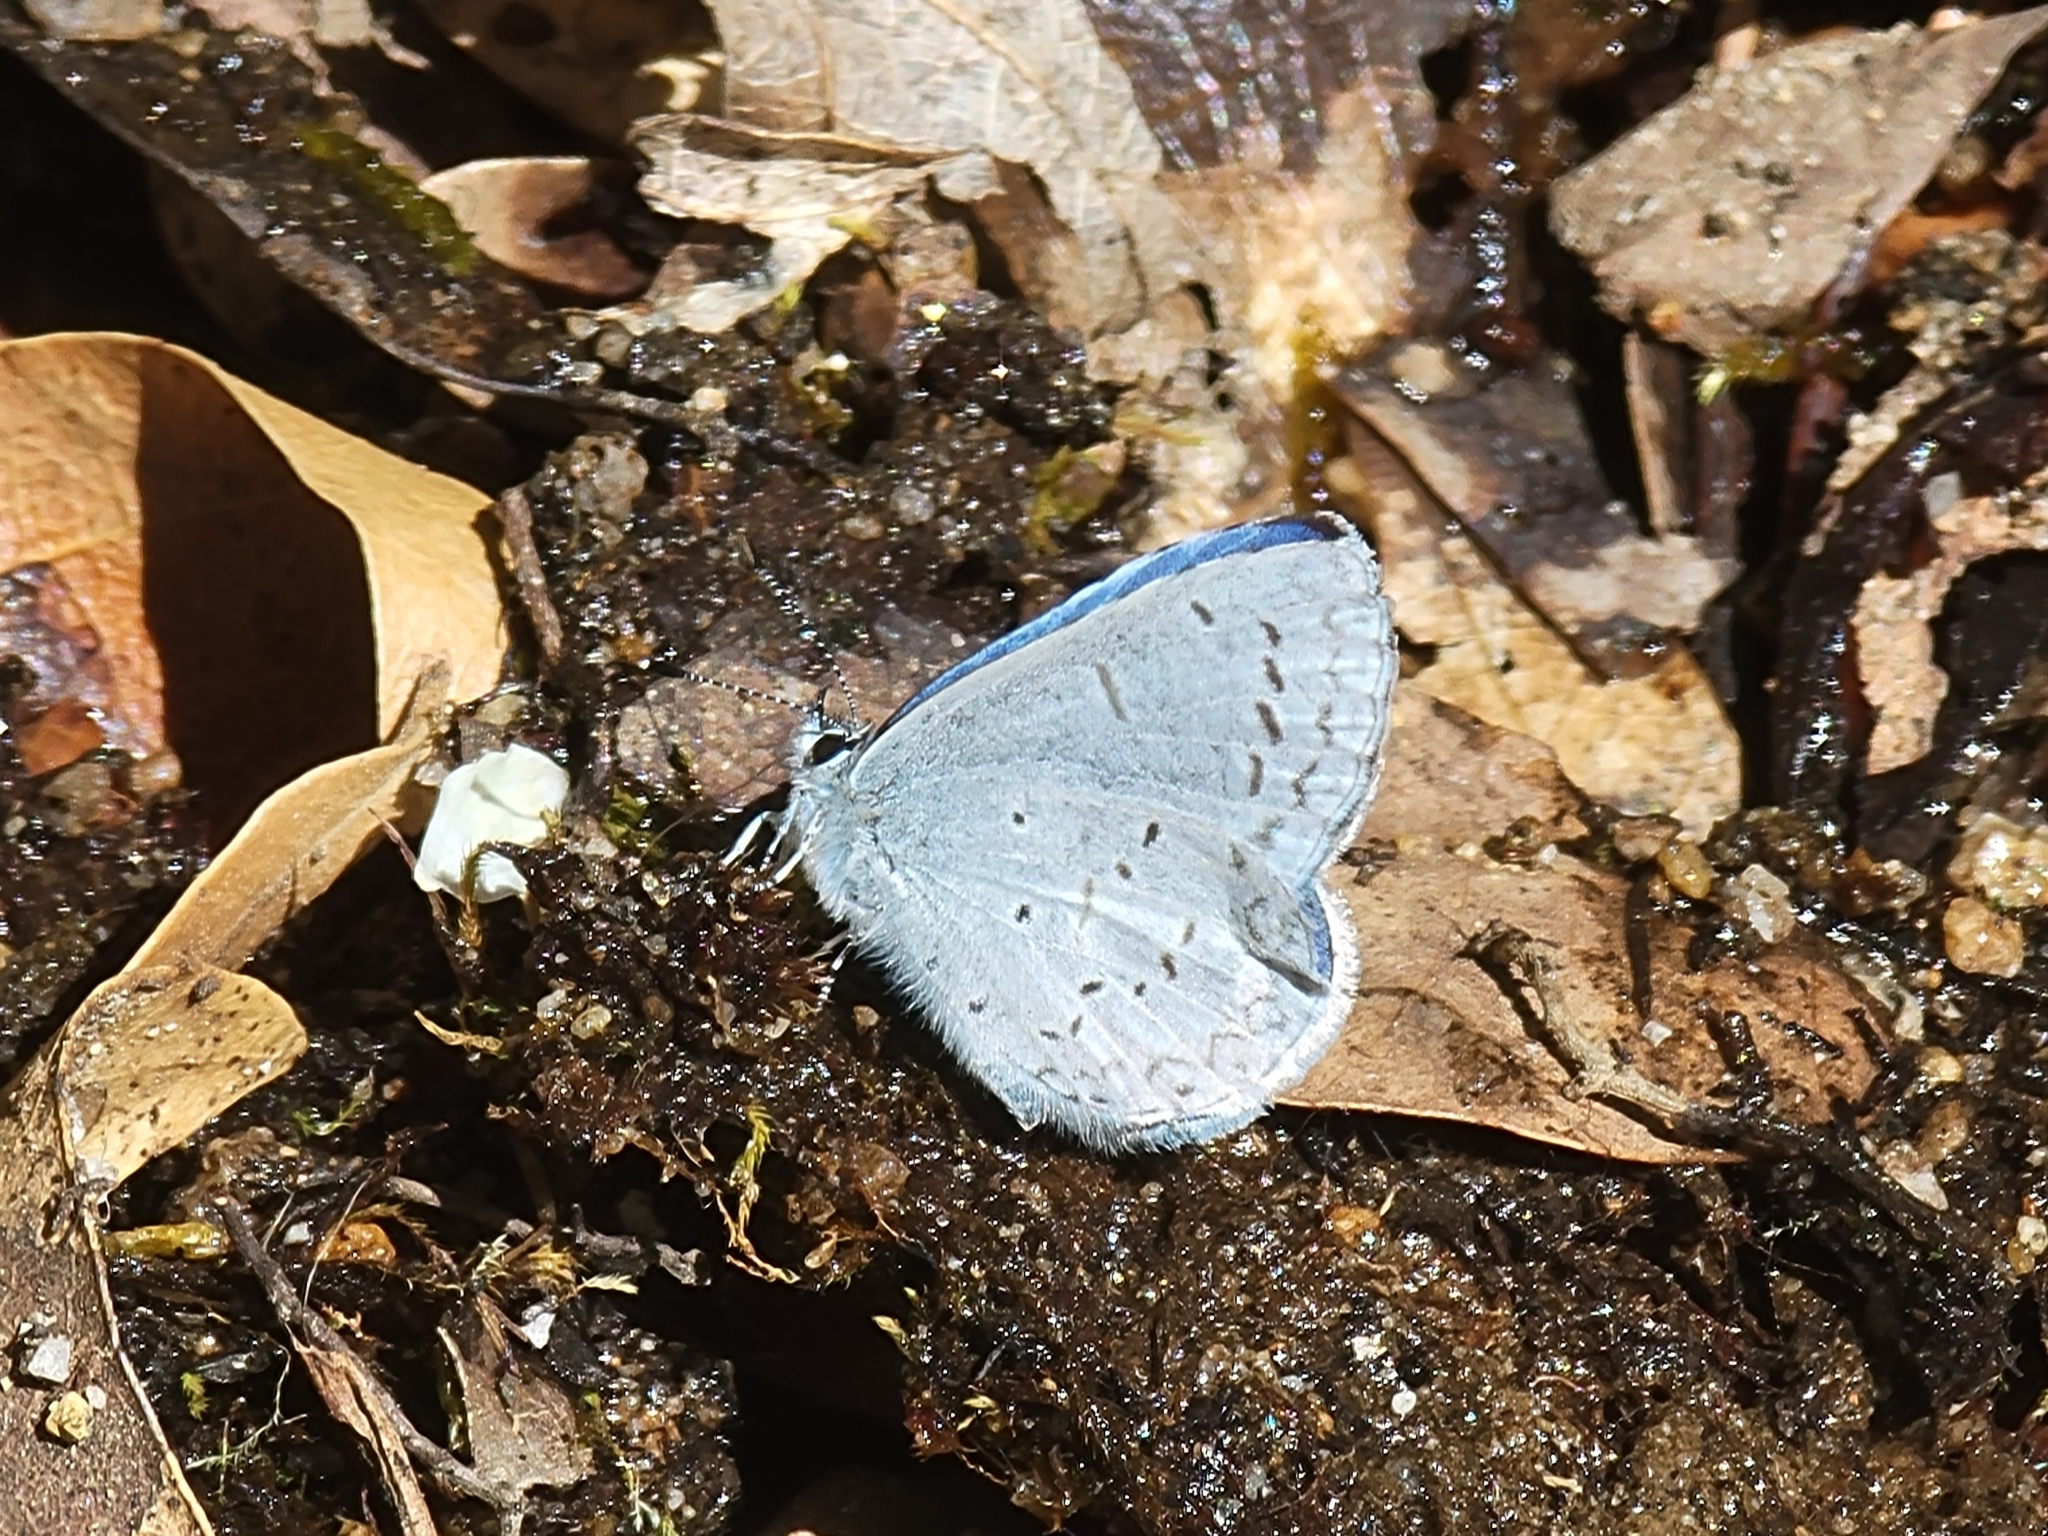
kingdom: Animalia
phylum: Arthropoda
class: Insecta
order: Lepidoptera
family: Lycaenidae
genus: Celastrina
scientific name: Celastrina ladon
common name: Spring azure
